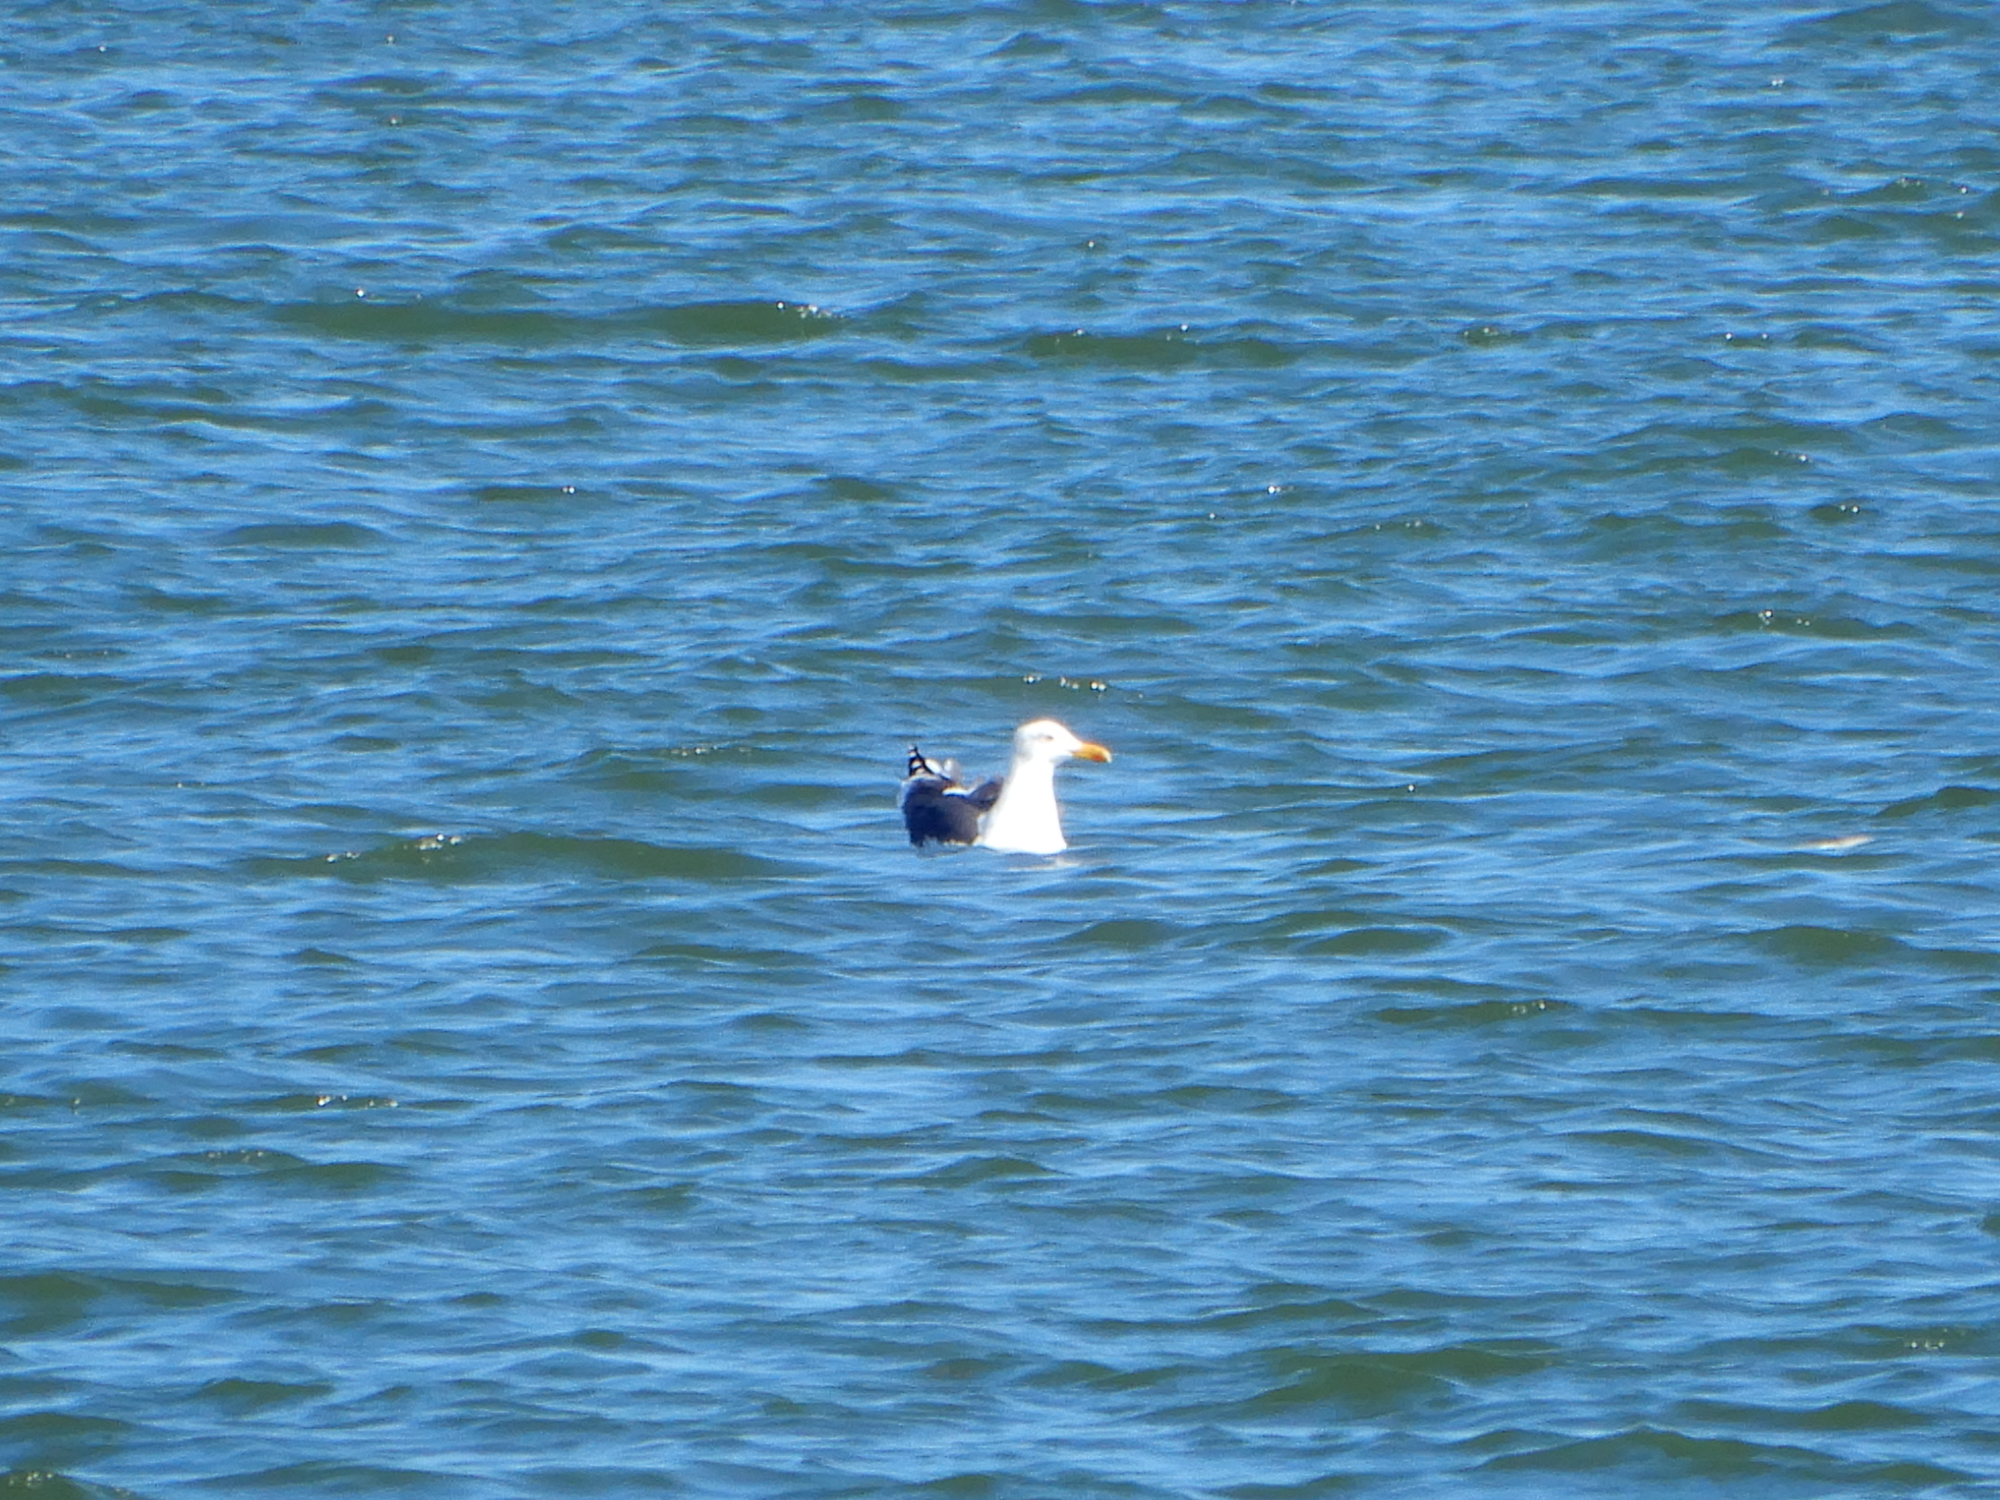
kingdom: Animalia
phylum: Chordata
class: Aves
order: Charadriiformes
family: Laridae
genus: Larus
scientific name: Larus fuscus
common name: Lesser black-backed gull
